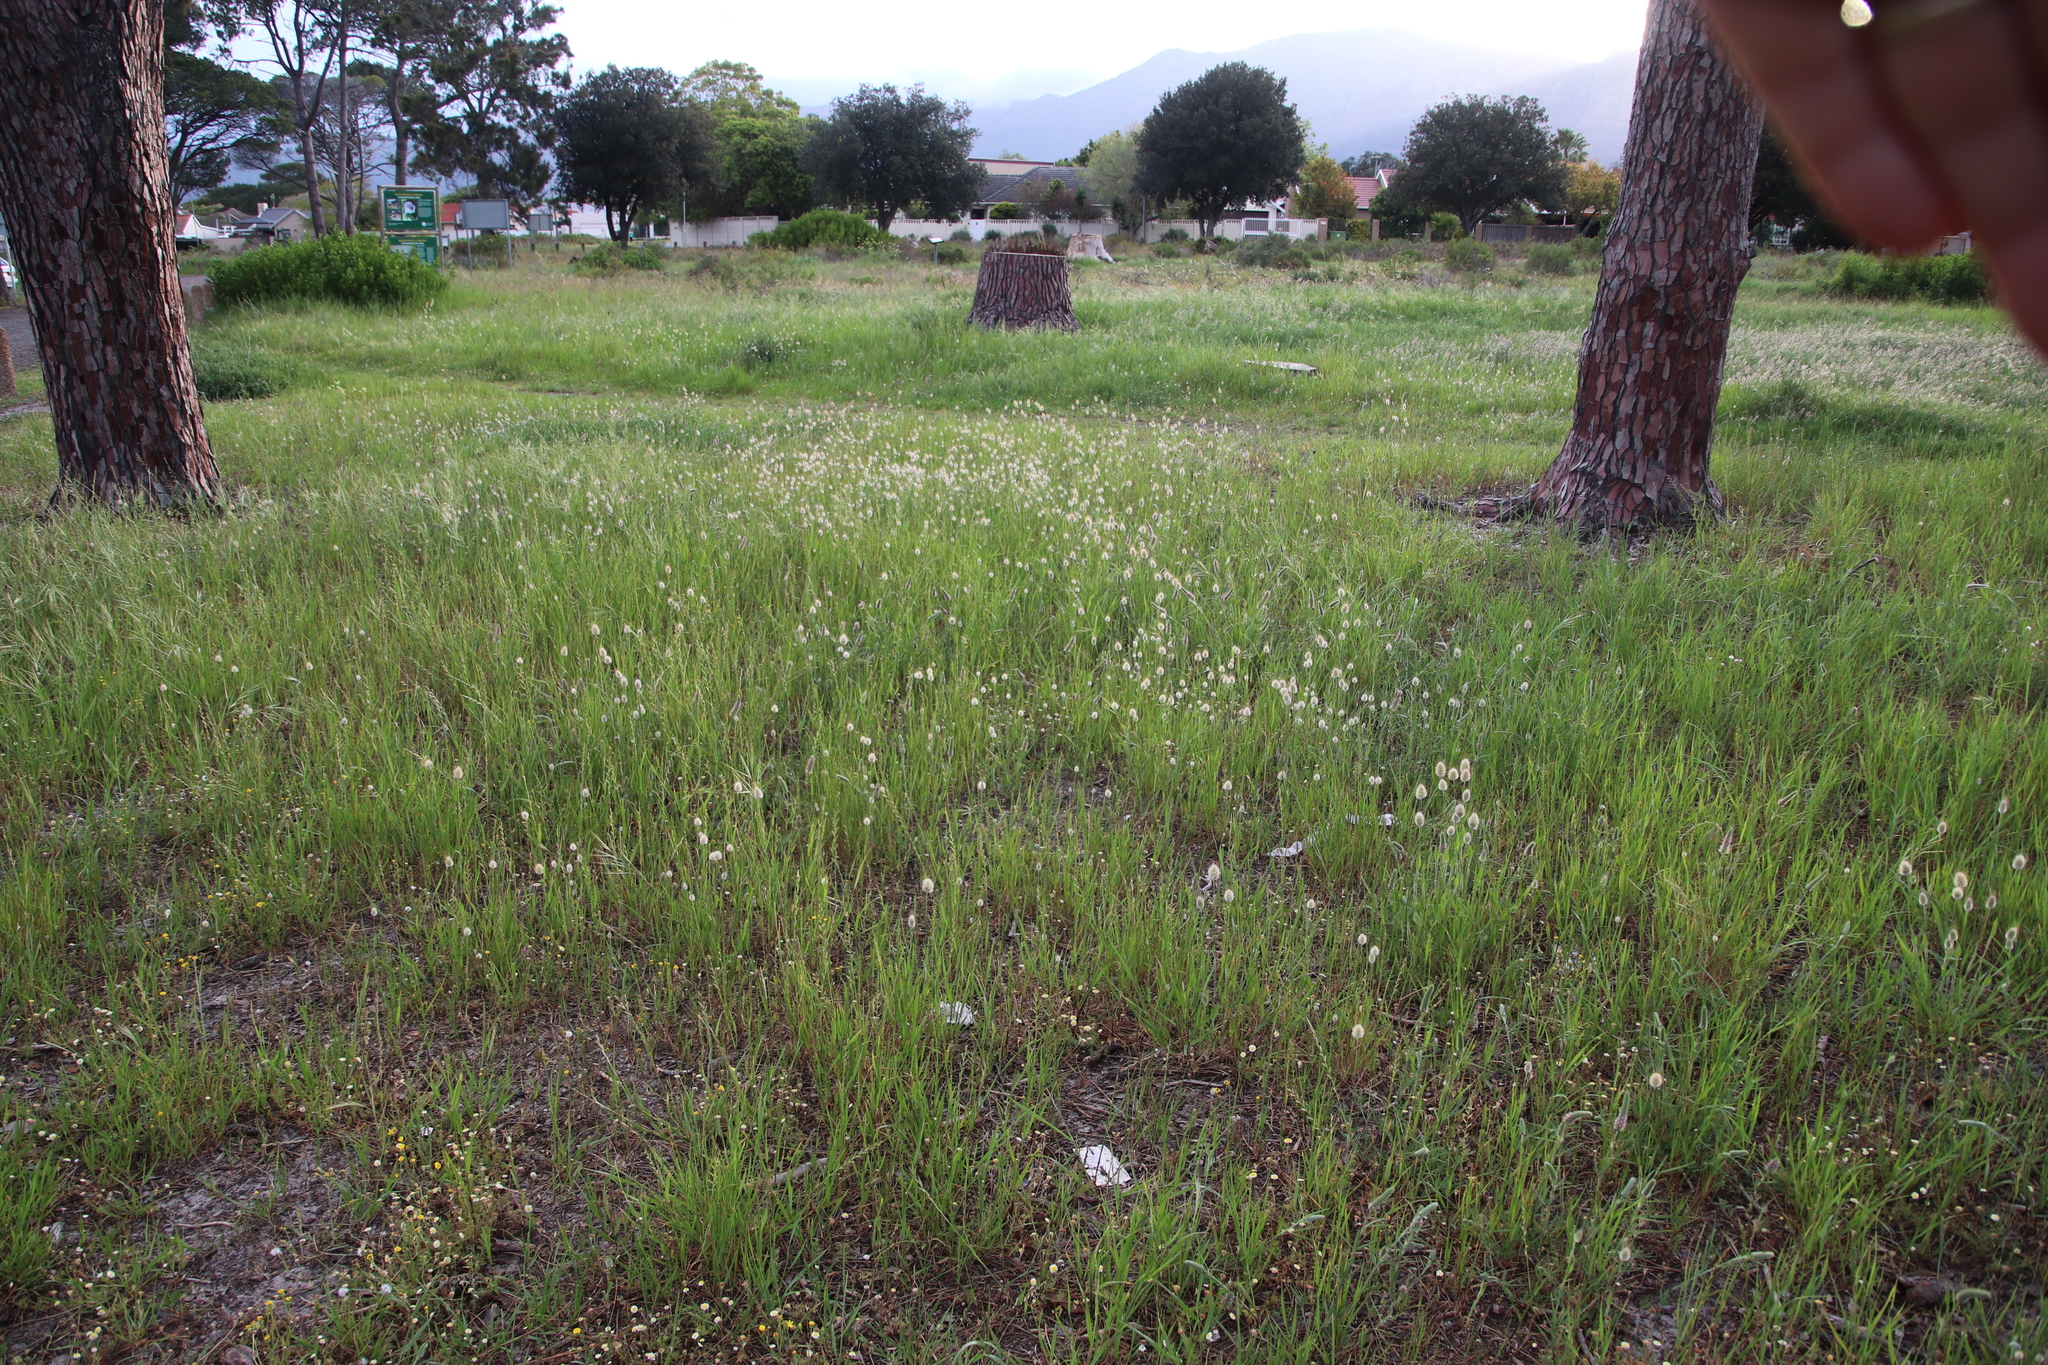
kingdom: Plantae
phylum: Tracheophyta
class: Liliopsida
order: Poales
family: Poaceae
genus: Lagurus
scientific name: Lagurus ovatus
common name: Hare's-tail
